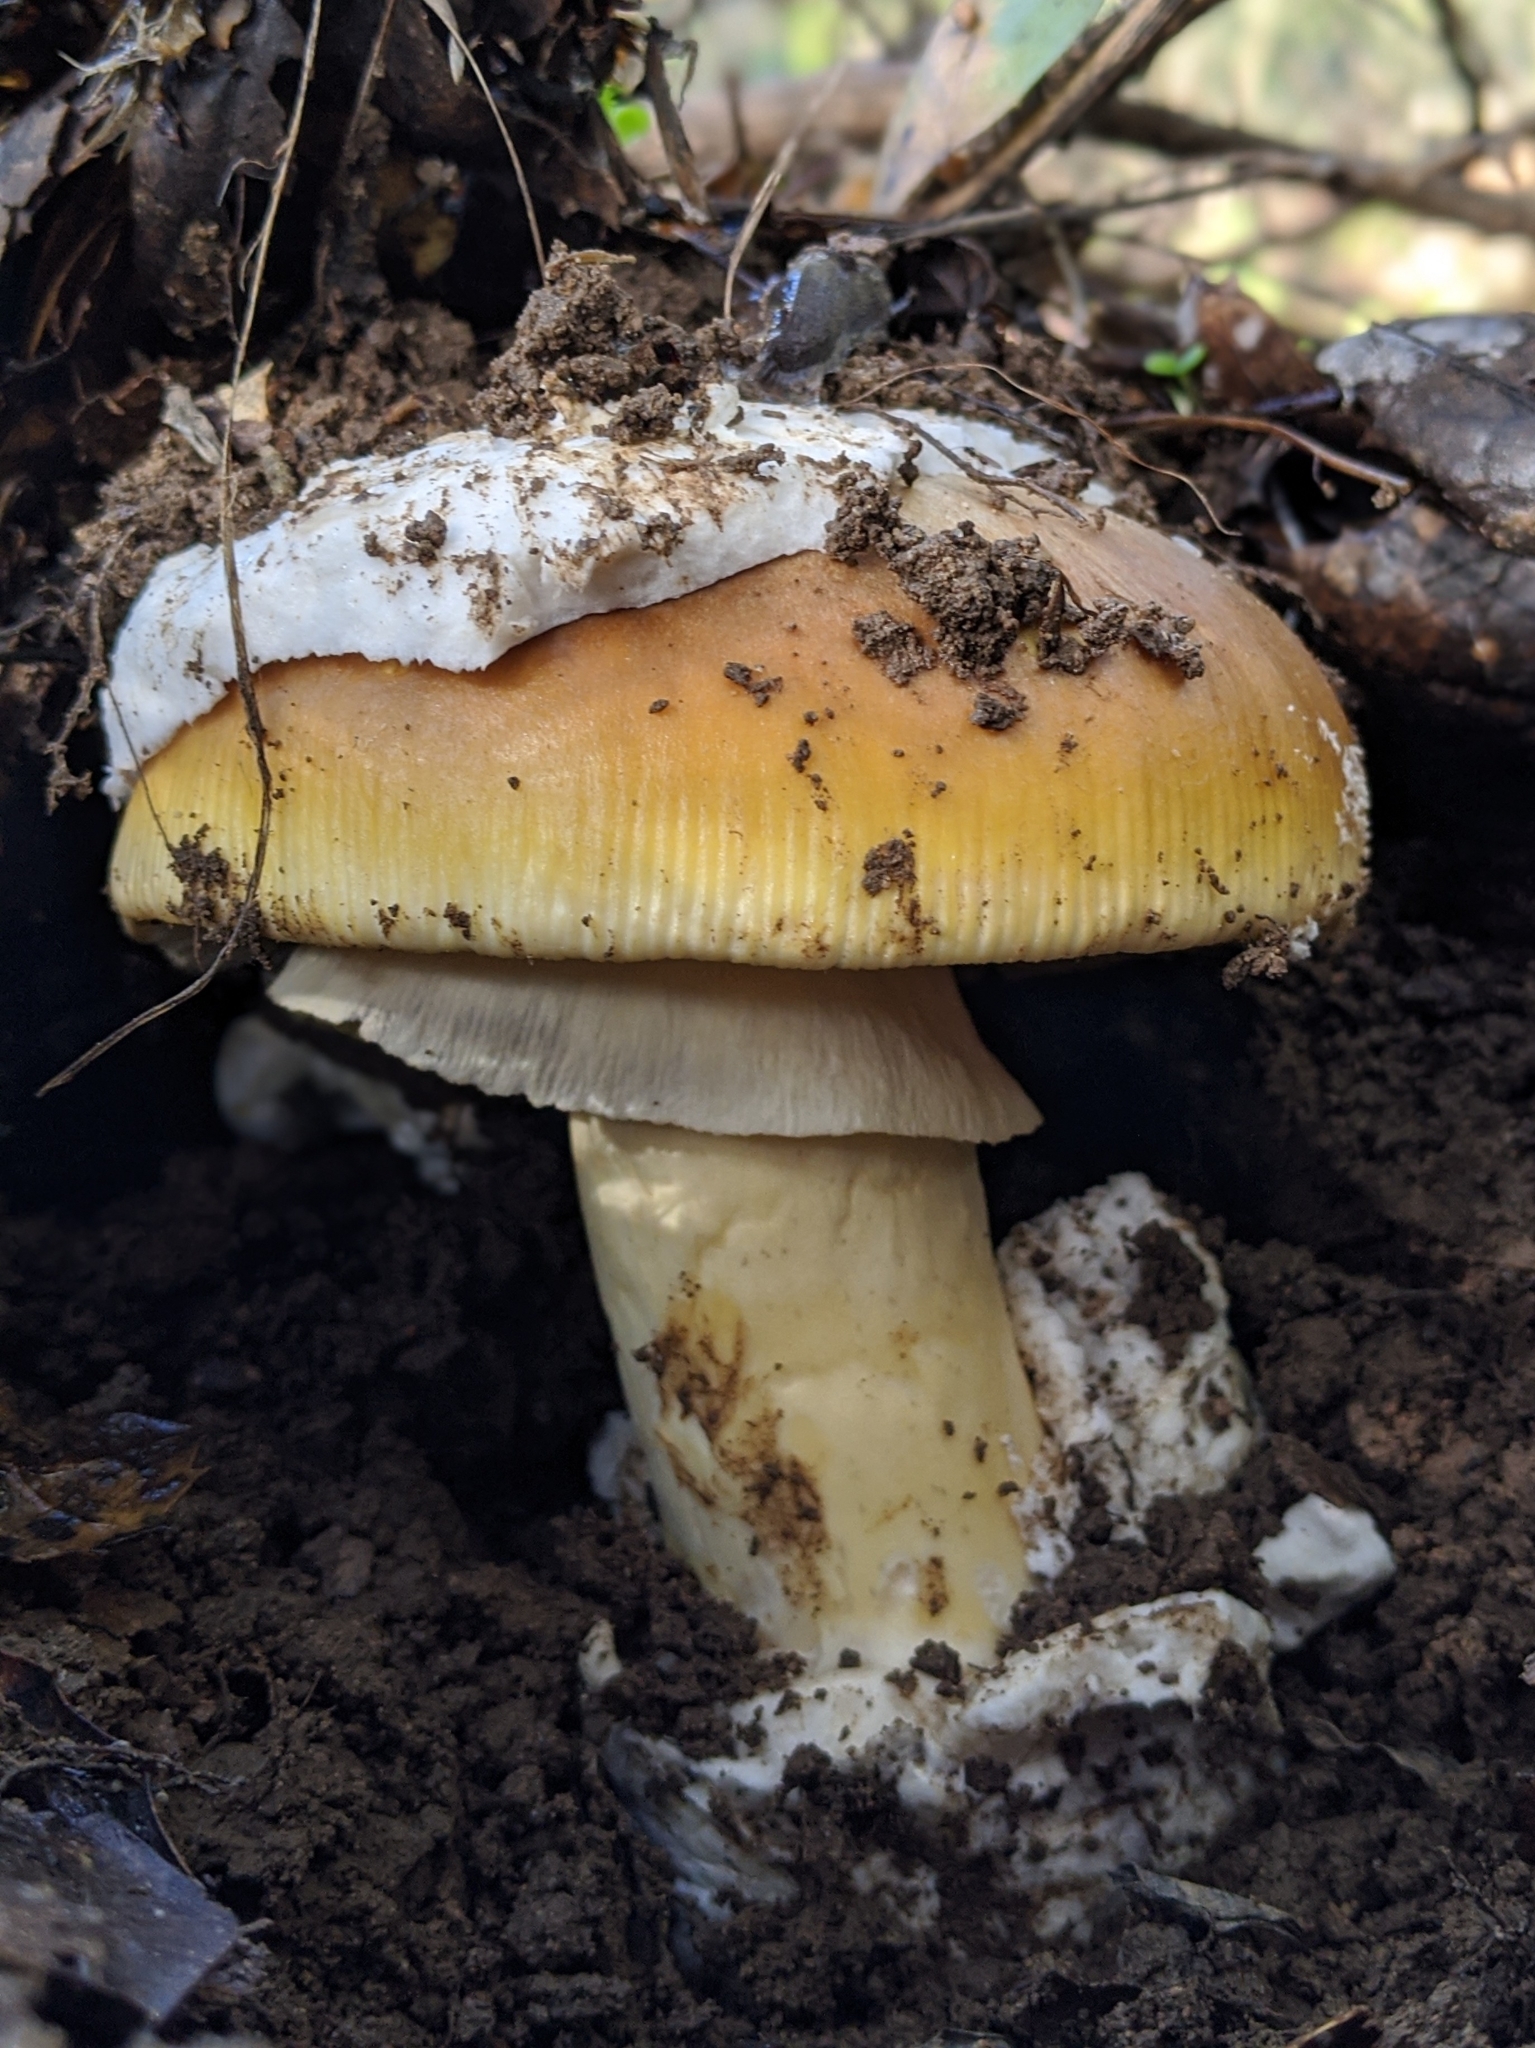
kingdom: Fungi
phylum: Basidiomycota
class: Agaricomycetes
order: Agaricales
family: Amanitaceae
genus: Amanita
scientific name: Amanita calyptroderma
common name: Coccora
